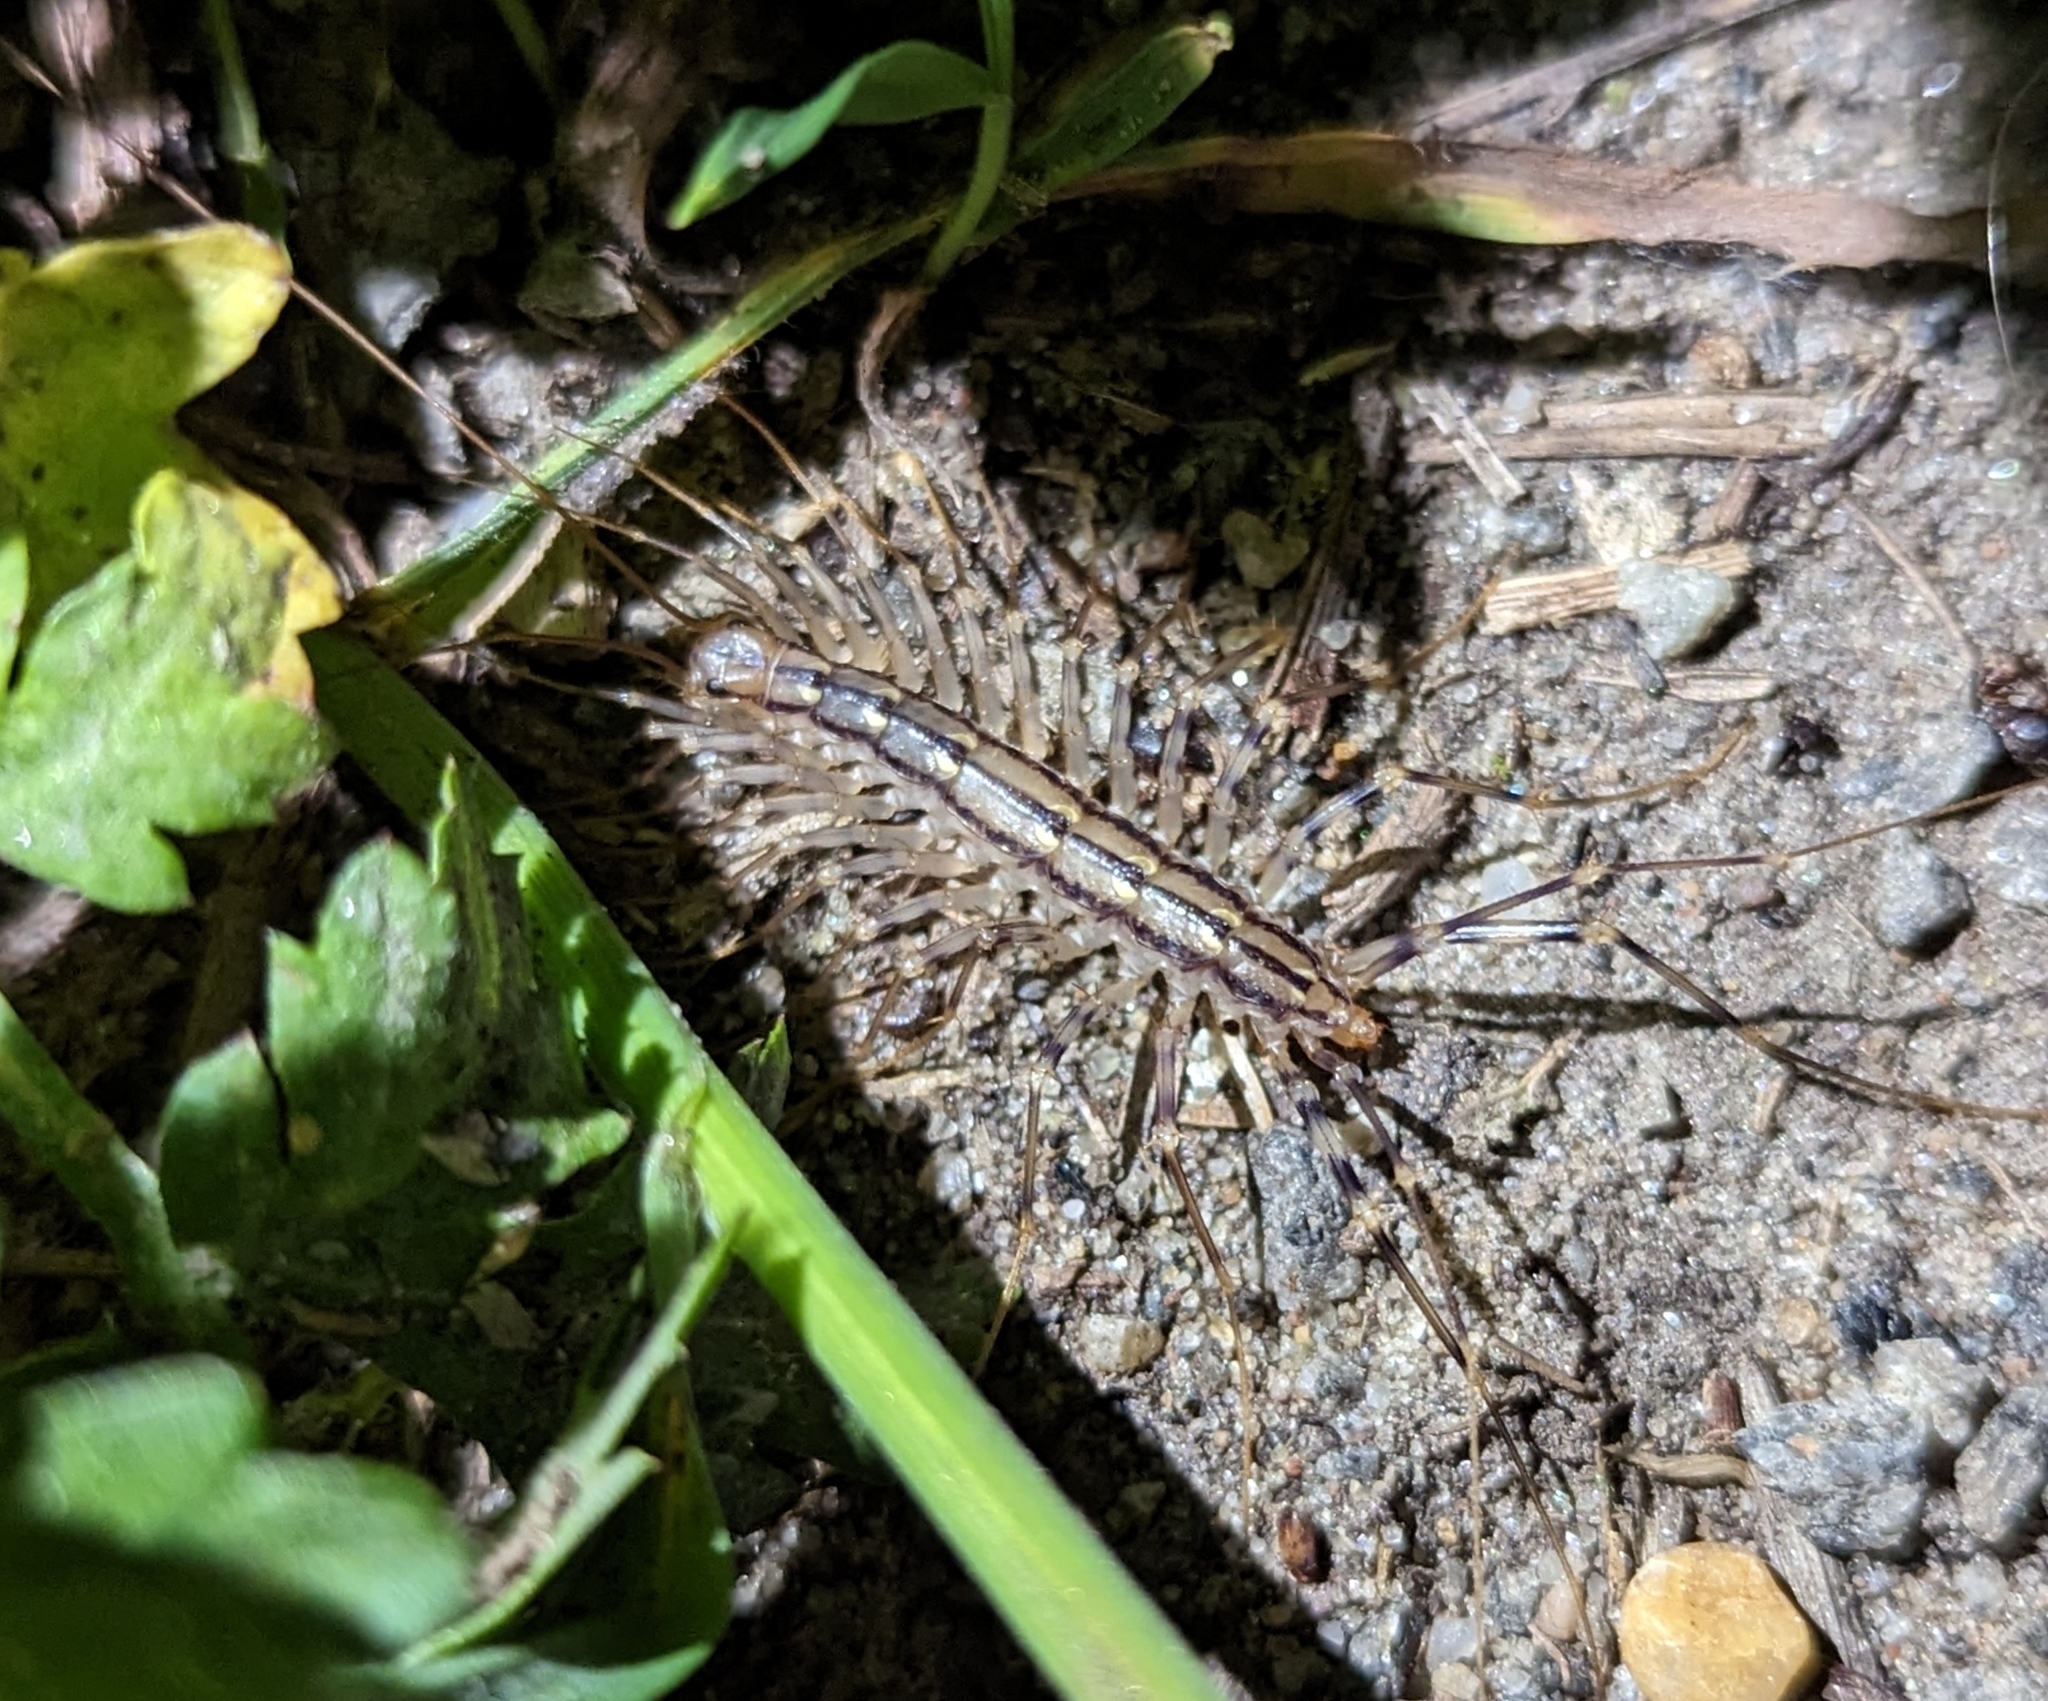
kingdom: Animalia
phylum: Arthropoda
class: Chilopoda
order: Scutigeromorpha
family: Scutigeridae
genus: Scutigera
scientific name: Scutigera coleoptrata
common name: House centipede
